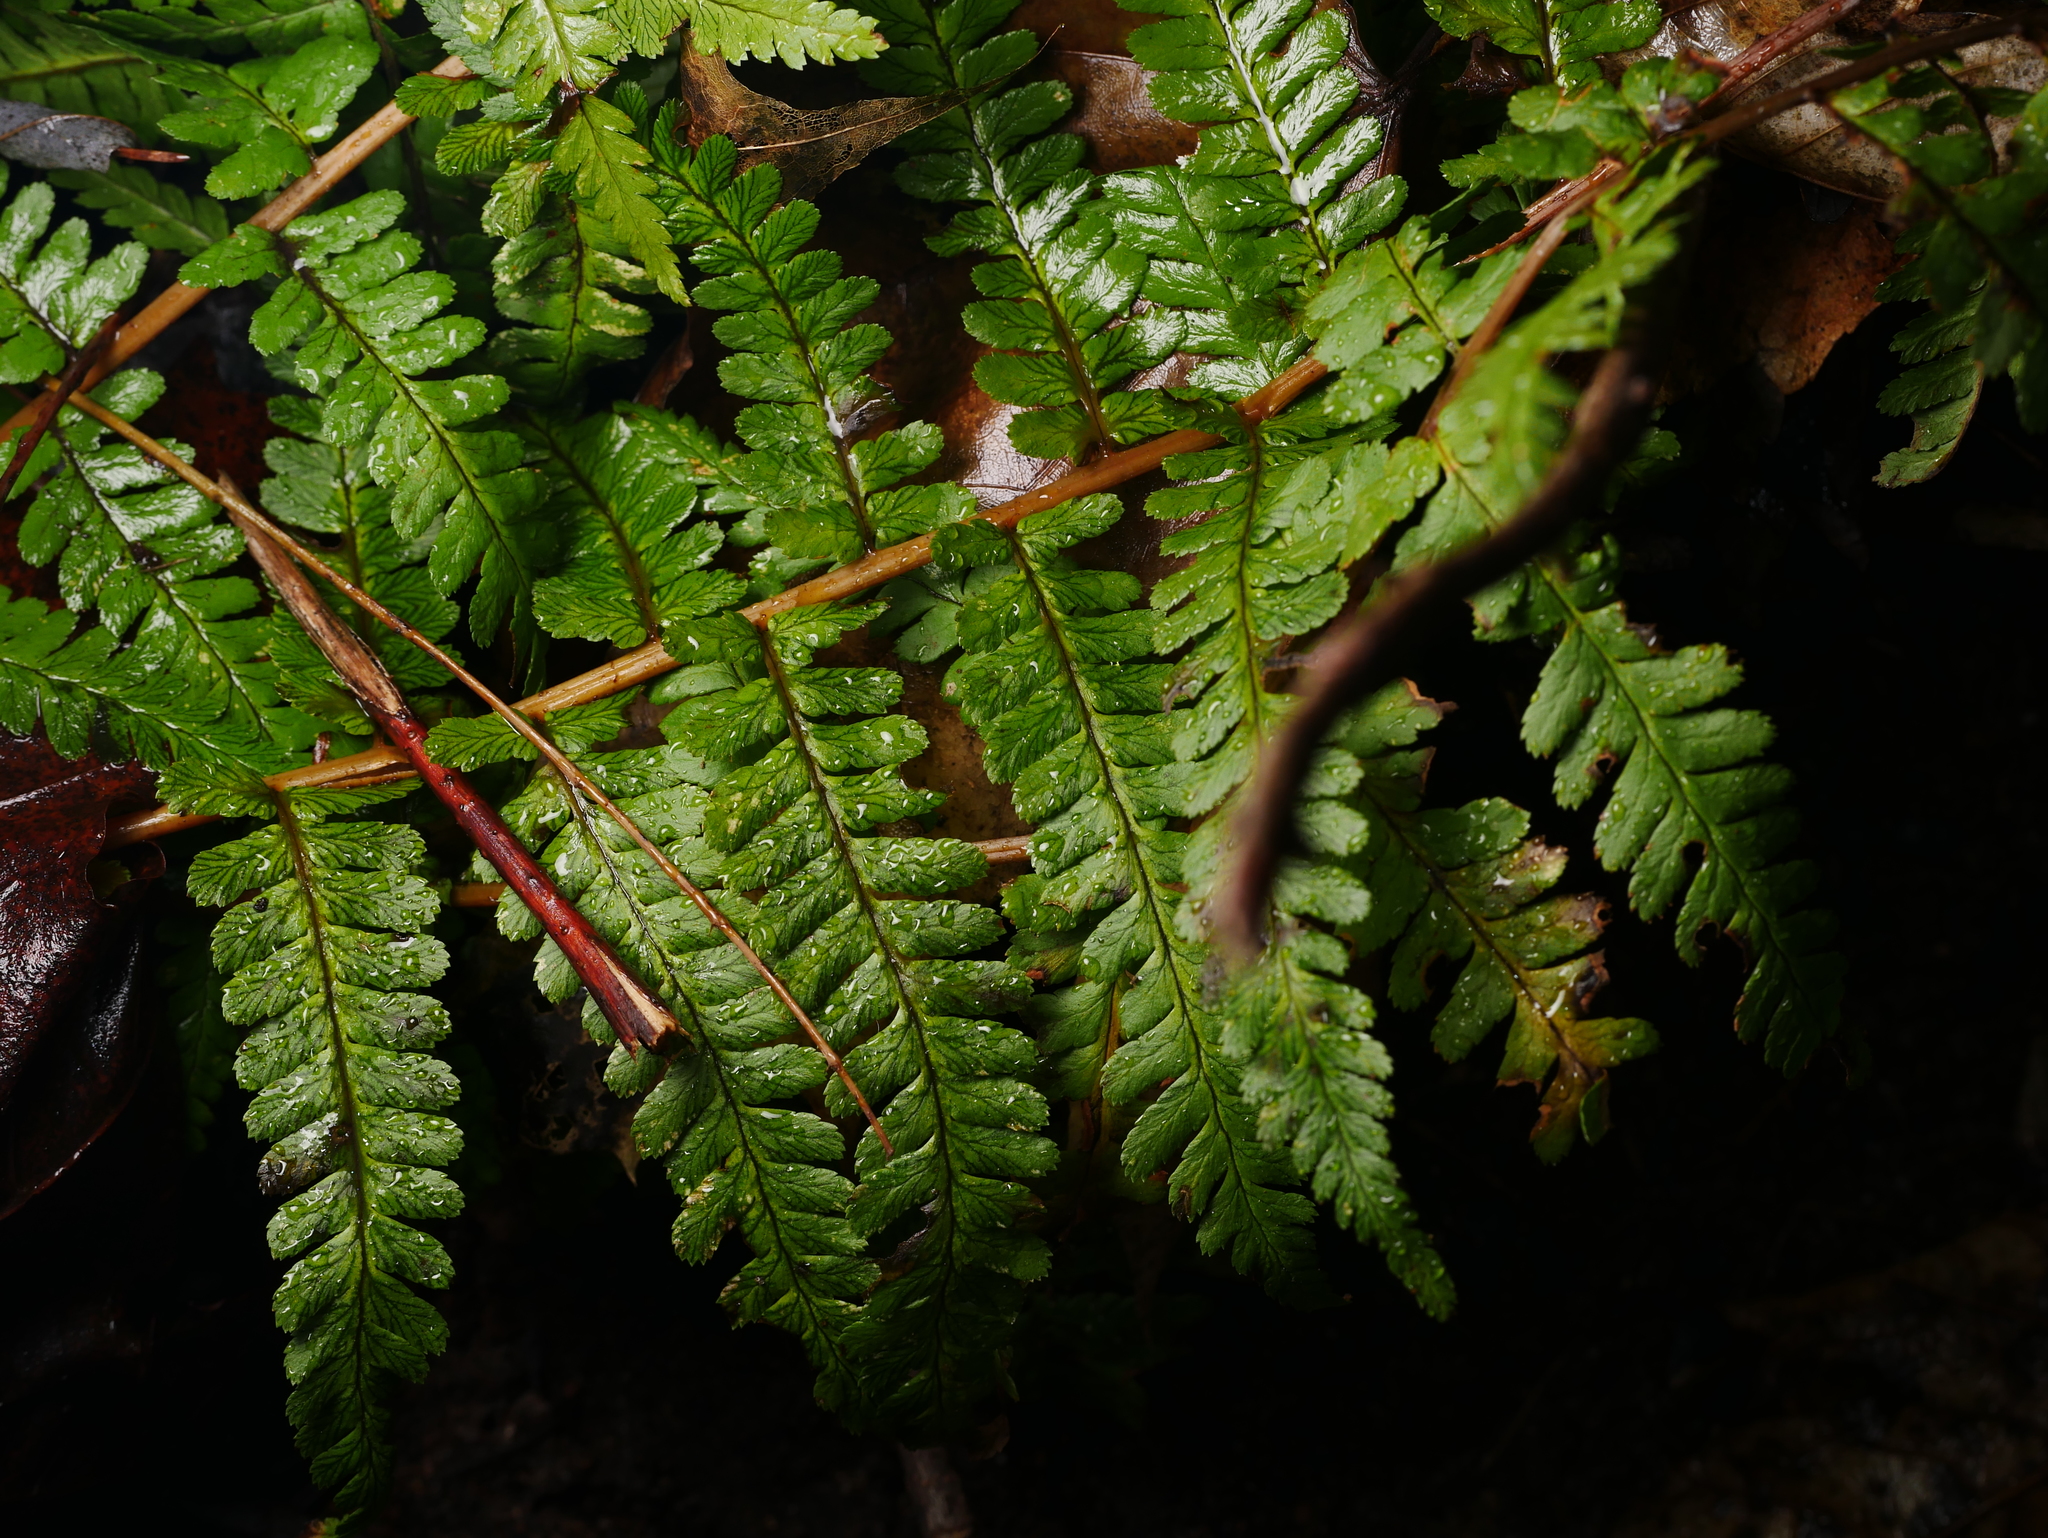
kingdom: Plantae
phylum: Tracheophyta
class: Polypodiopsida
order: Polypodiales
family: Dryopteridaceae
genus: Dryopteris
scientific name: Dryopteris filix-mas
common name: Male fern
